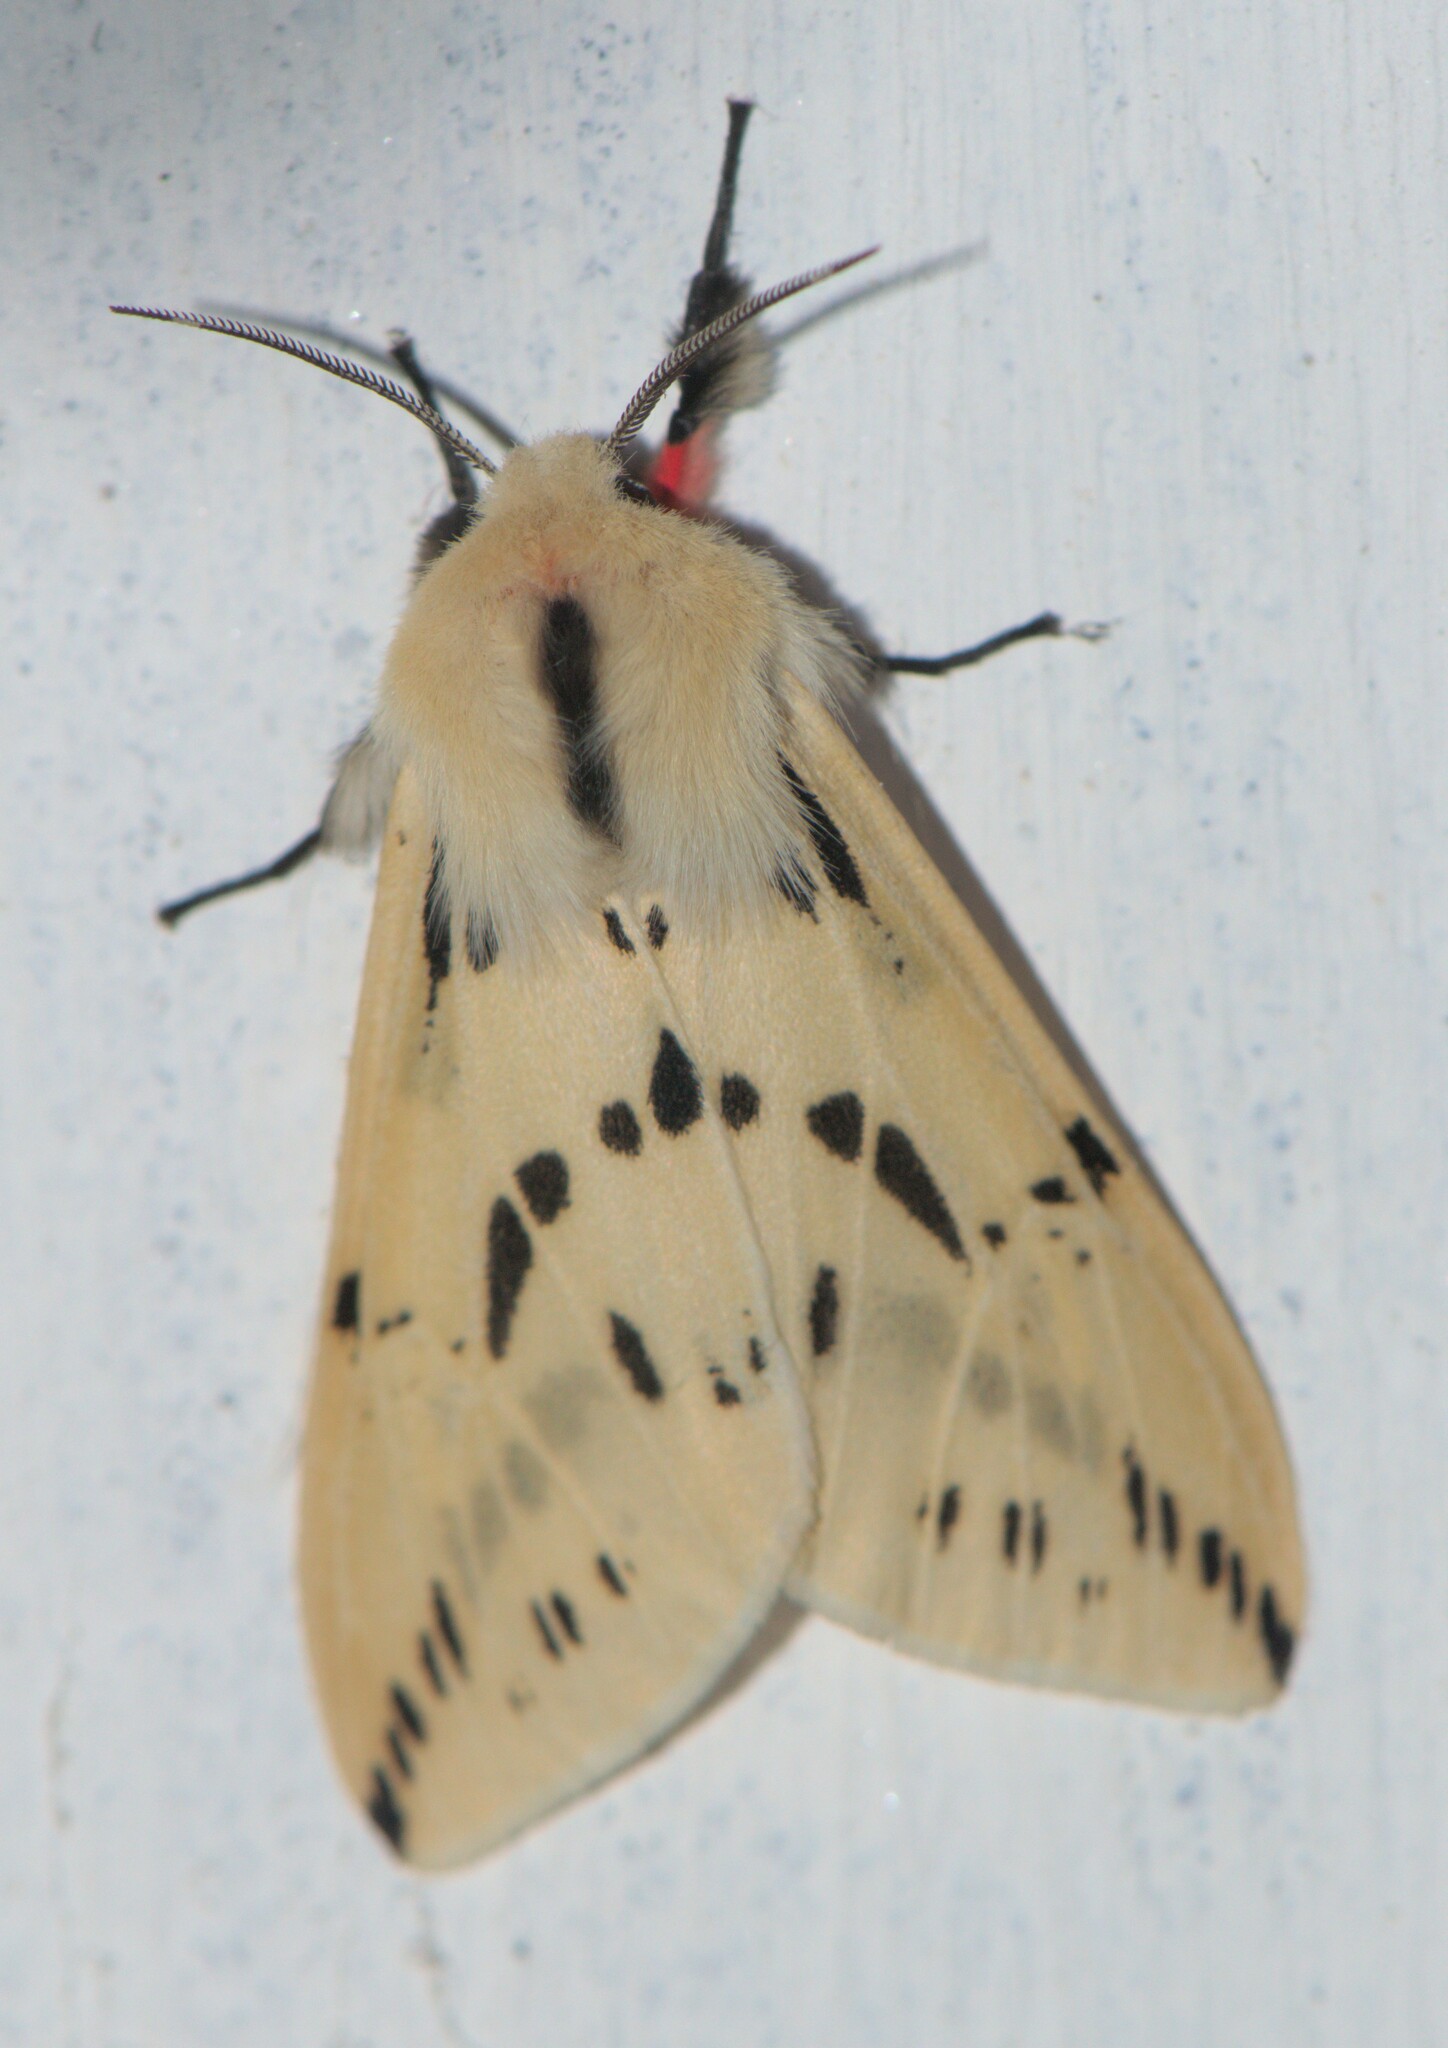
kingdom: Animalia
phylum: Arthropoda
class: Insecta
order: Lepidoptera
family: Erebidae
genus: Lemyra
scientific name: Lemyra stigmata
